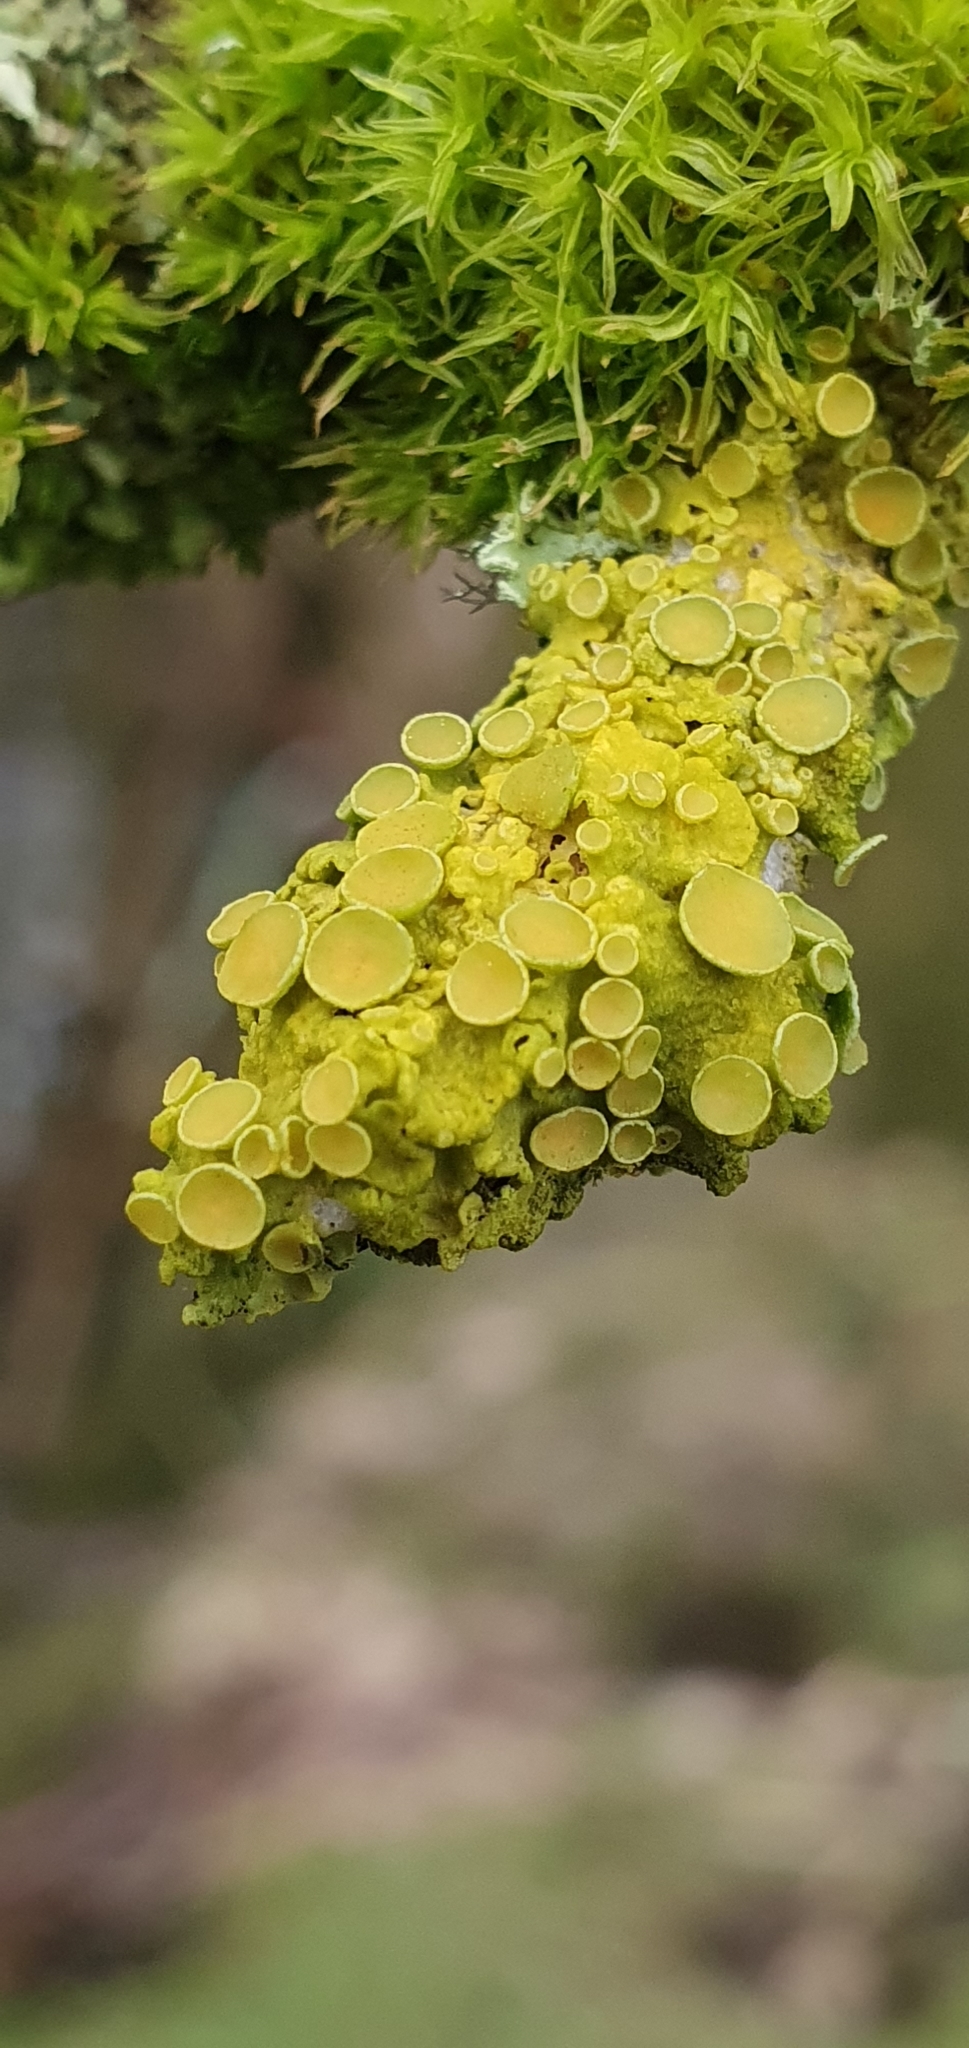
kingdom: Fungi
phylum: Ascomycota
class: Lecanoromycetes
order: Teloschistales
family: Teloschistaceae
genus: Xanthoria
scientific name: Xanthoria parietina
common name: Common orange lichen
